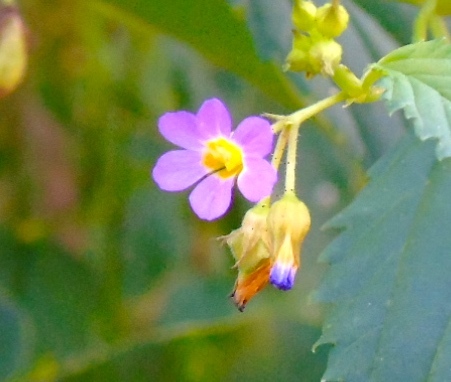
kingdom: Plantae
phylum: Tracheophyta
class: Magnoliopsida
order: Malvales
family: Malvaceae
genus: Melochia
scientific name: Melochia pyramidata
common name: Pyramidflower
